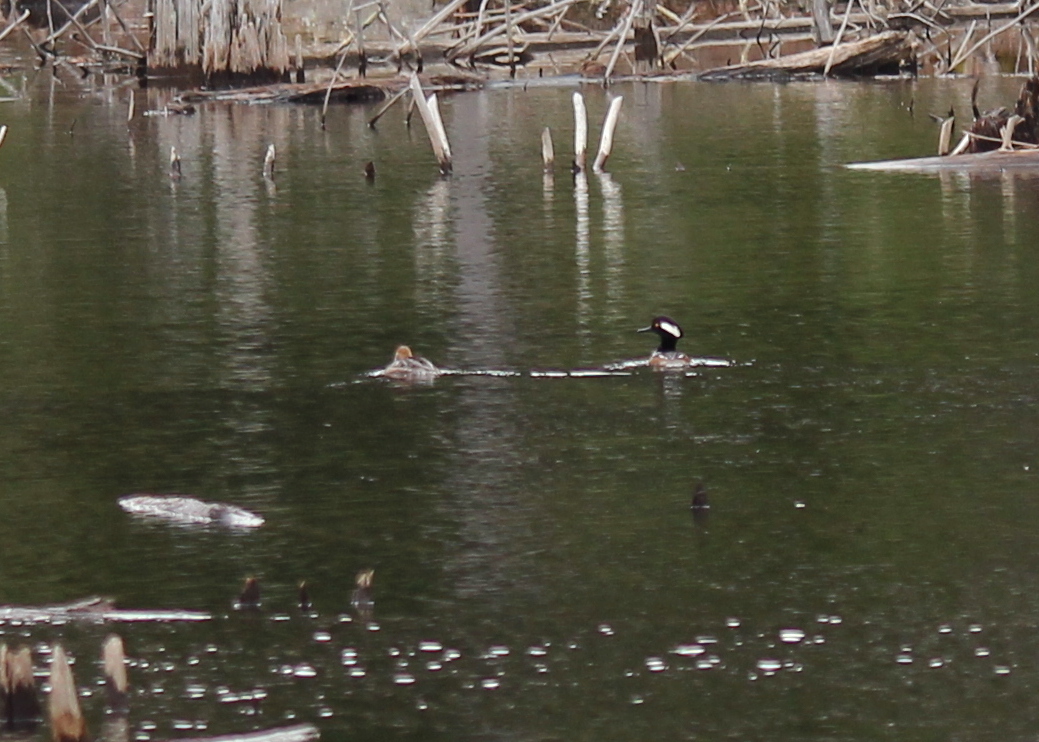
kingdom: Animalia
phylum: Chordata
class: Aves
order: Anseriformes
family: Anatidae
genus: Lophodytes
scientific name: Lophodytes cucullatus
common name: Hooded merganser
